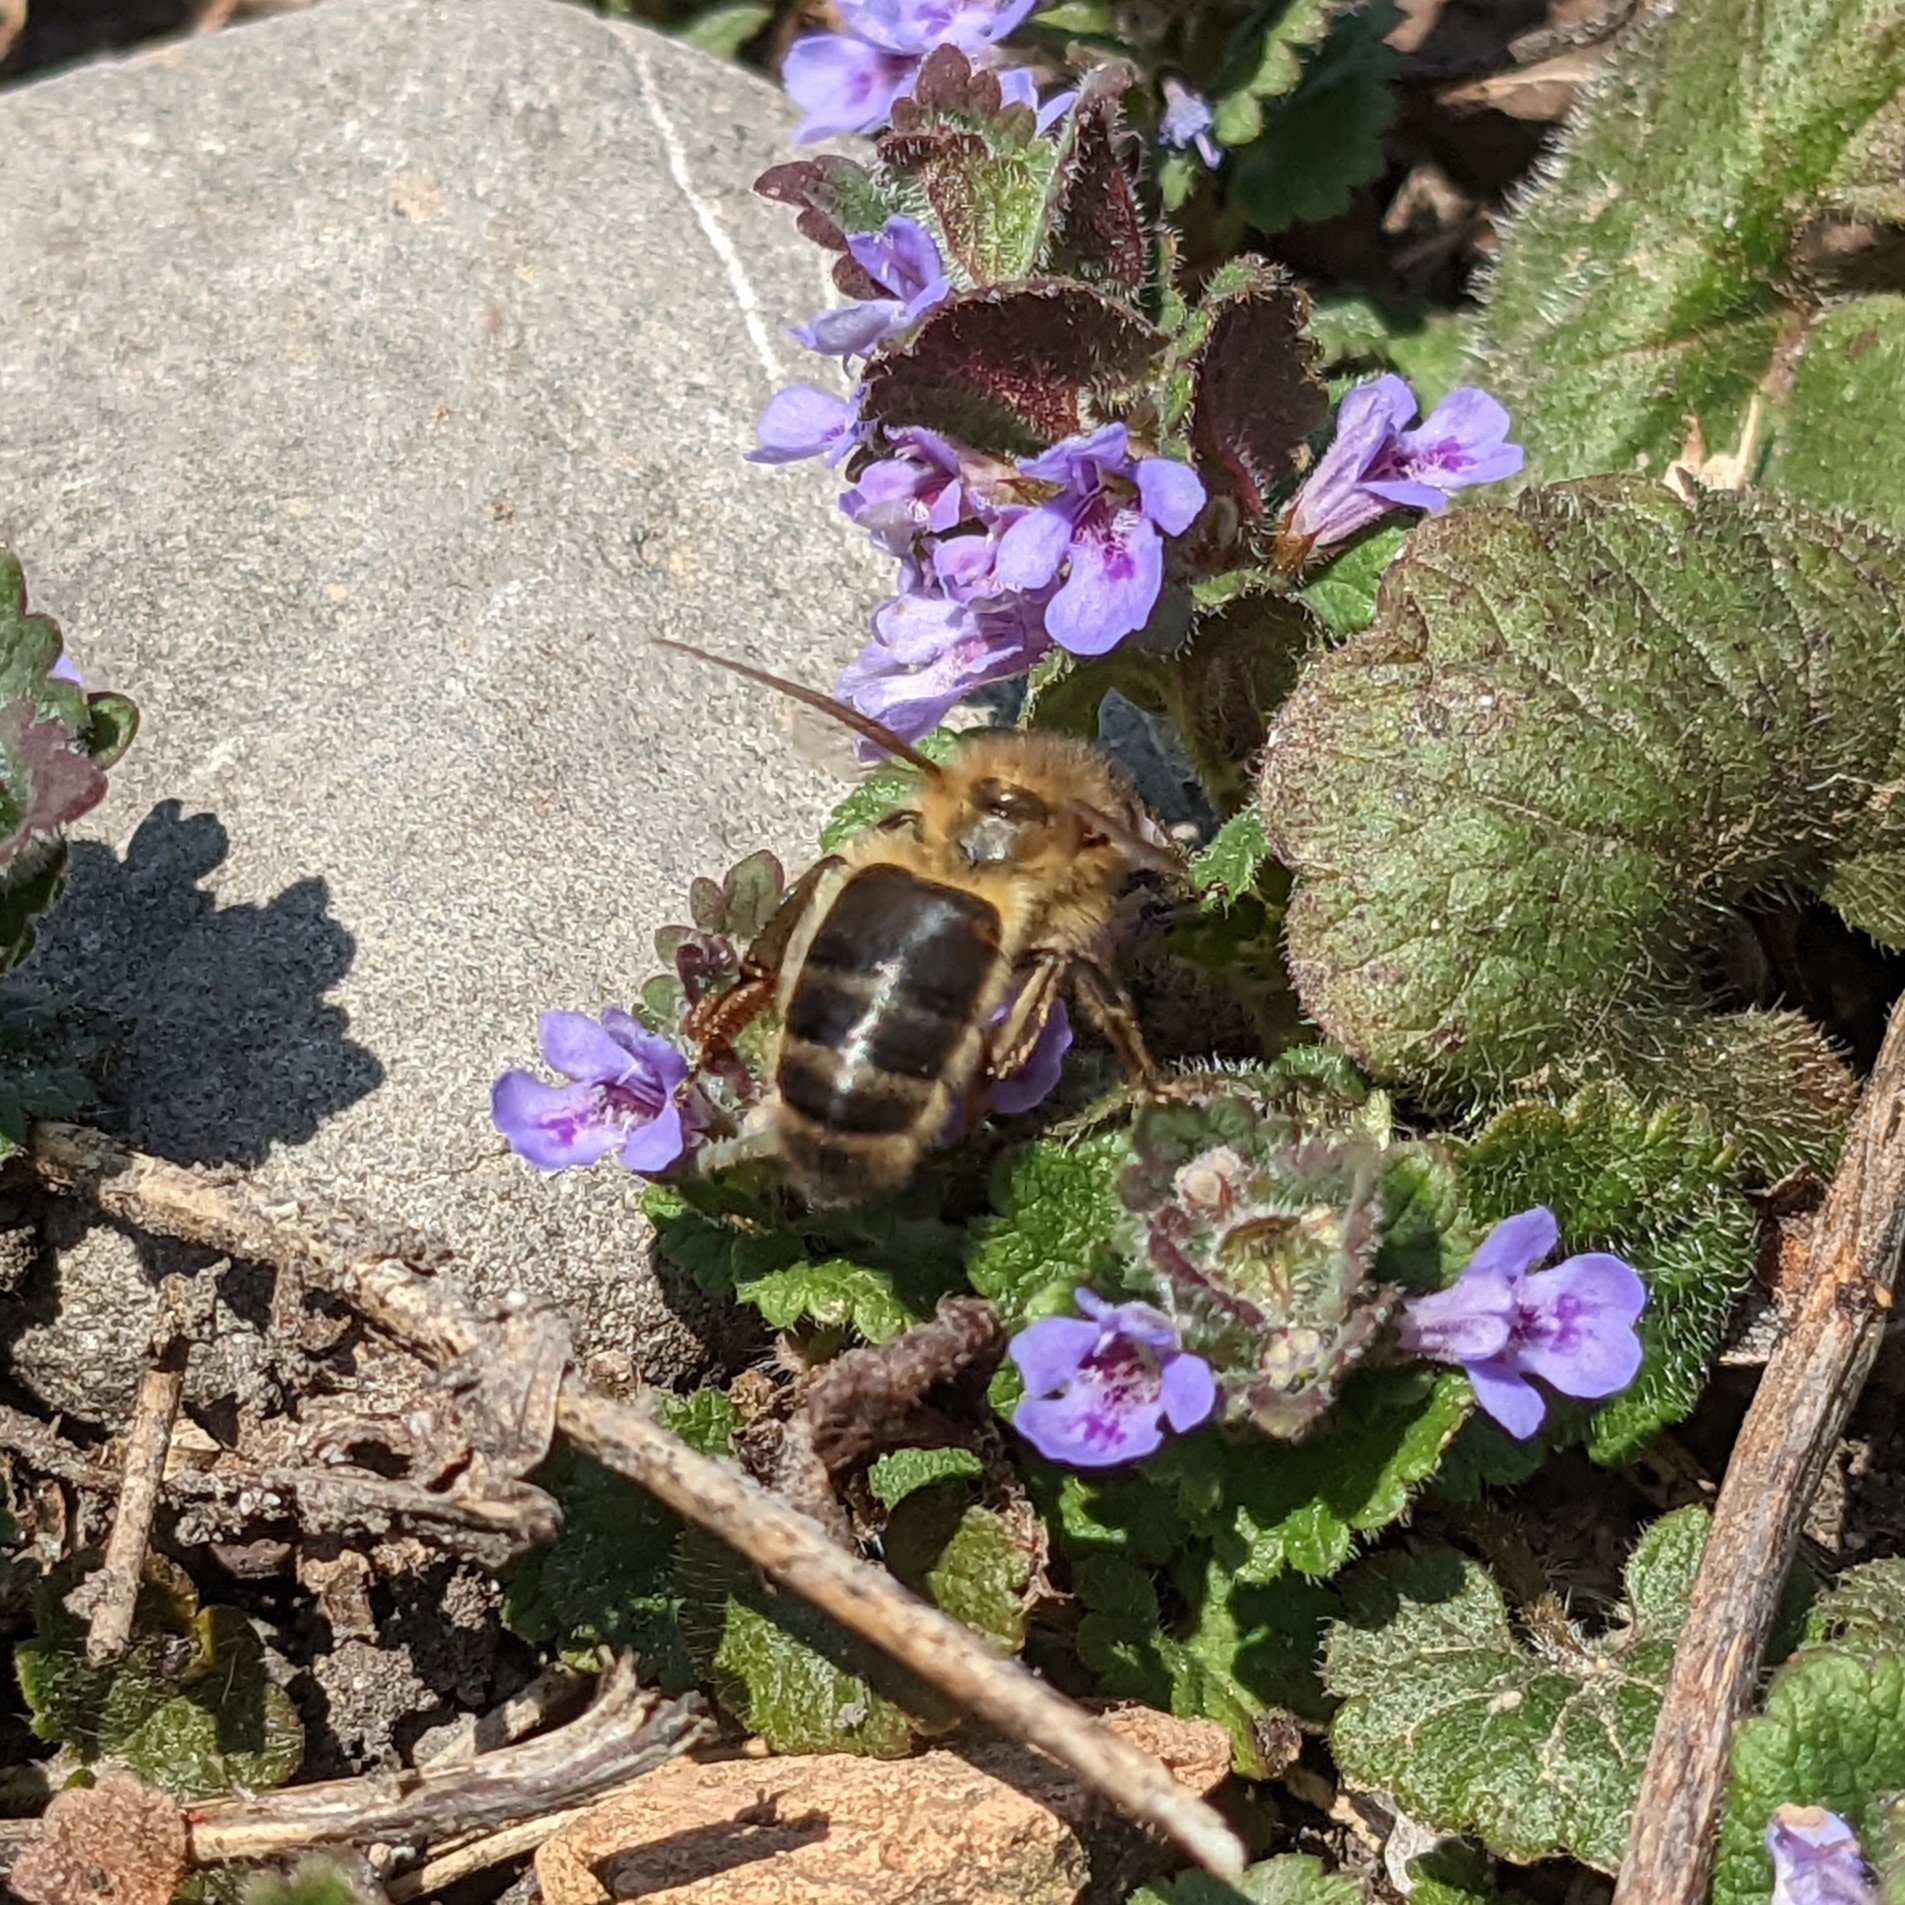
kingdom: Animalia
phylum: Arthropoda
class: Insecta
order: Hymenoptera
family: Apidae
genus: Apis
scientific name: Apis mellifera
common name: Honey bee
